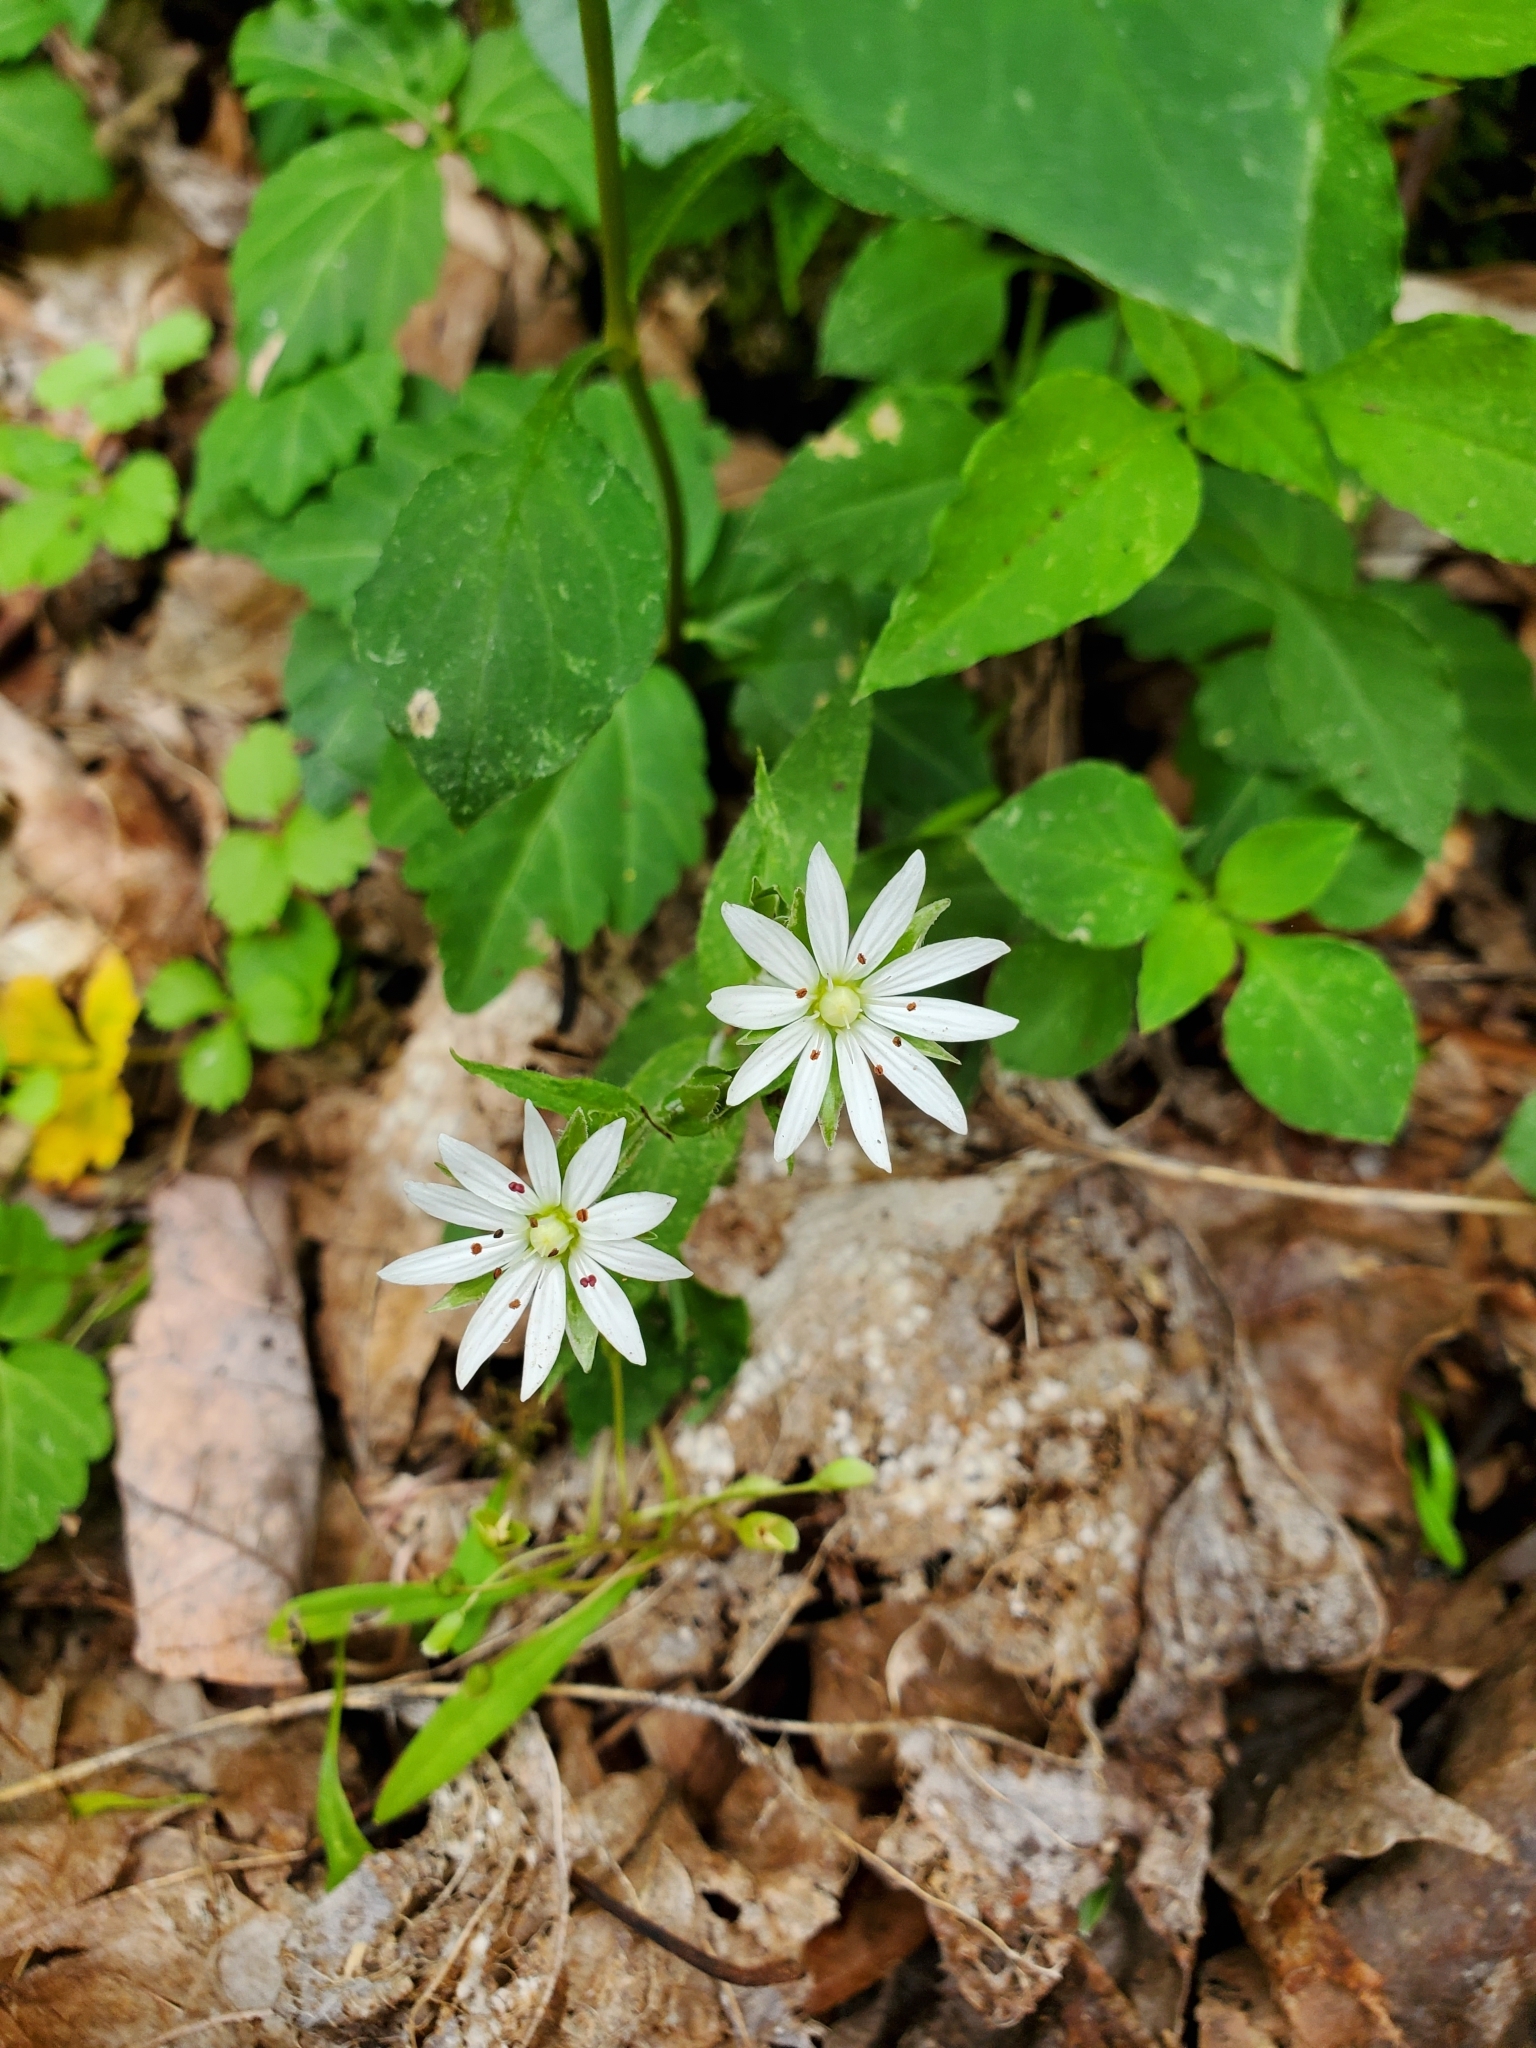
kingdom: Plantae
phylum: Tracheophyta
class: Magnoliopsida
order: Caryophyllales
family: Caryophyllaceae
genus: Stellaria
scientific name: Stellaria pubera
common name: Star chickweed
